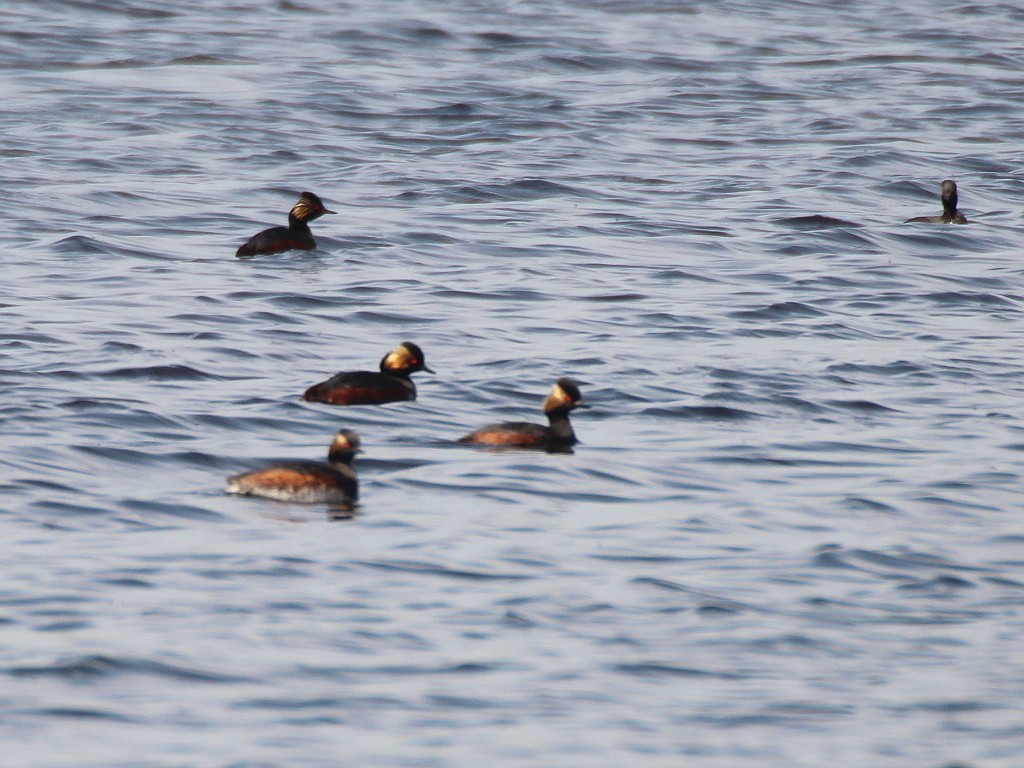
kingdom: Animalia
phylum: Chordata
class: Aves
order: Podicipediformes
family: Podicipedidae
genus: Podiceps
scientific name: Podiceps nigricollis
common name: Black-necked grebe
